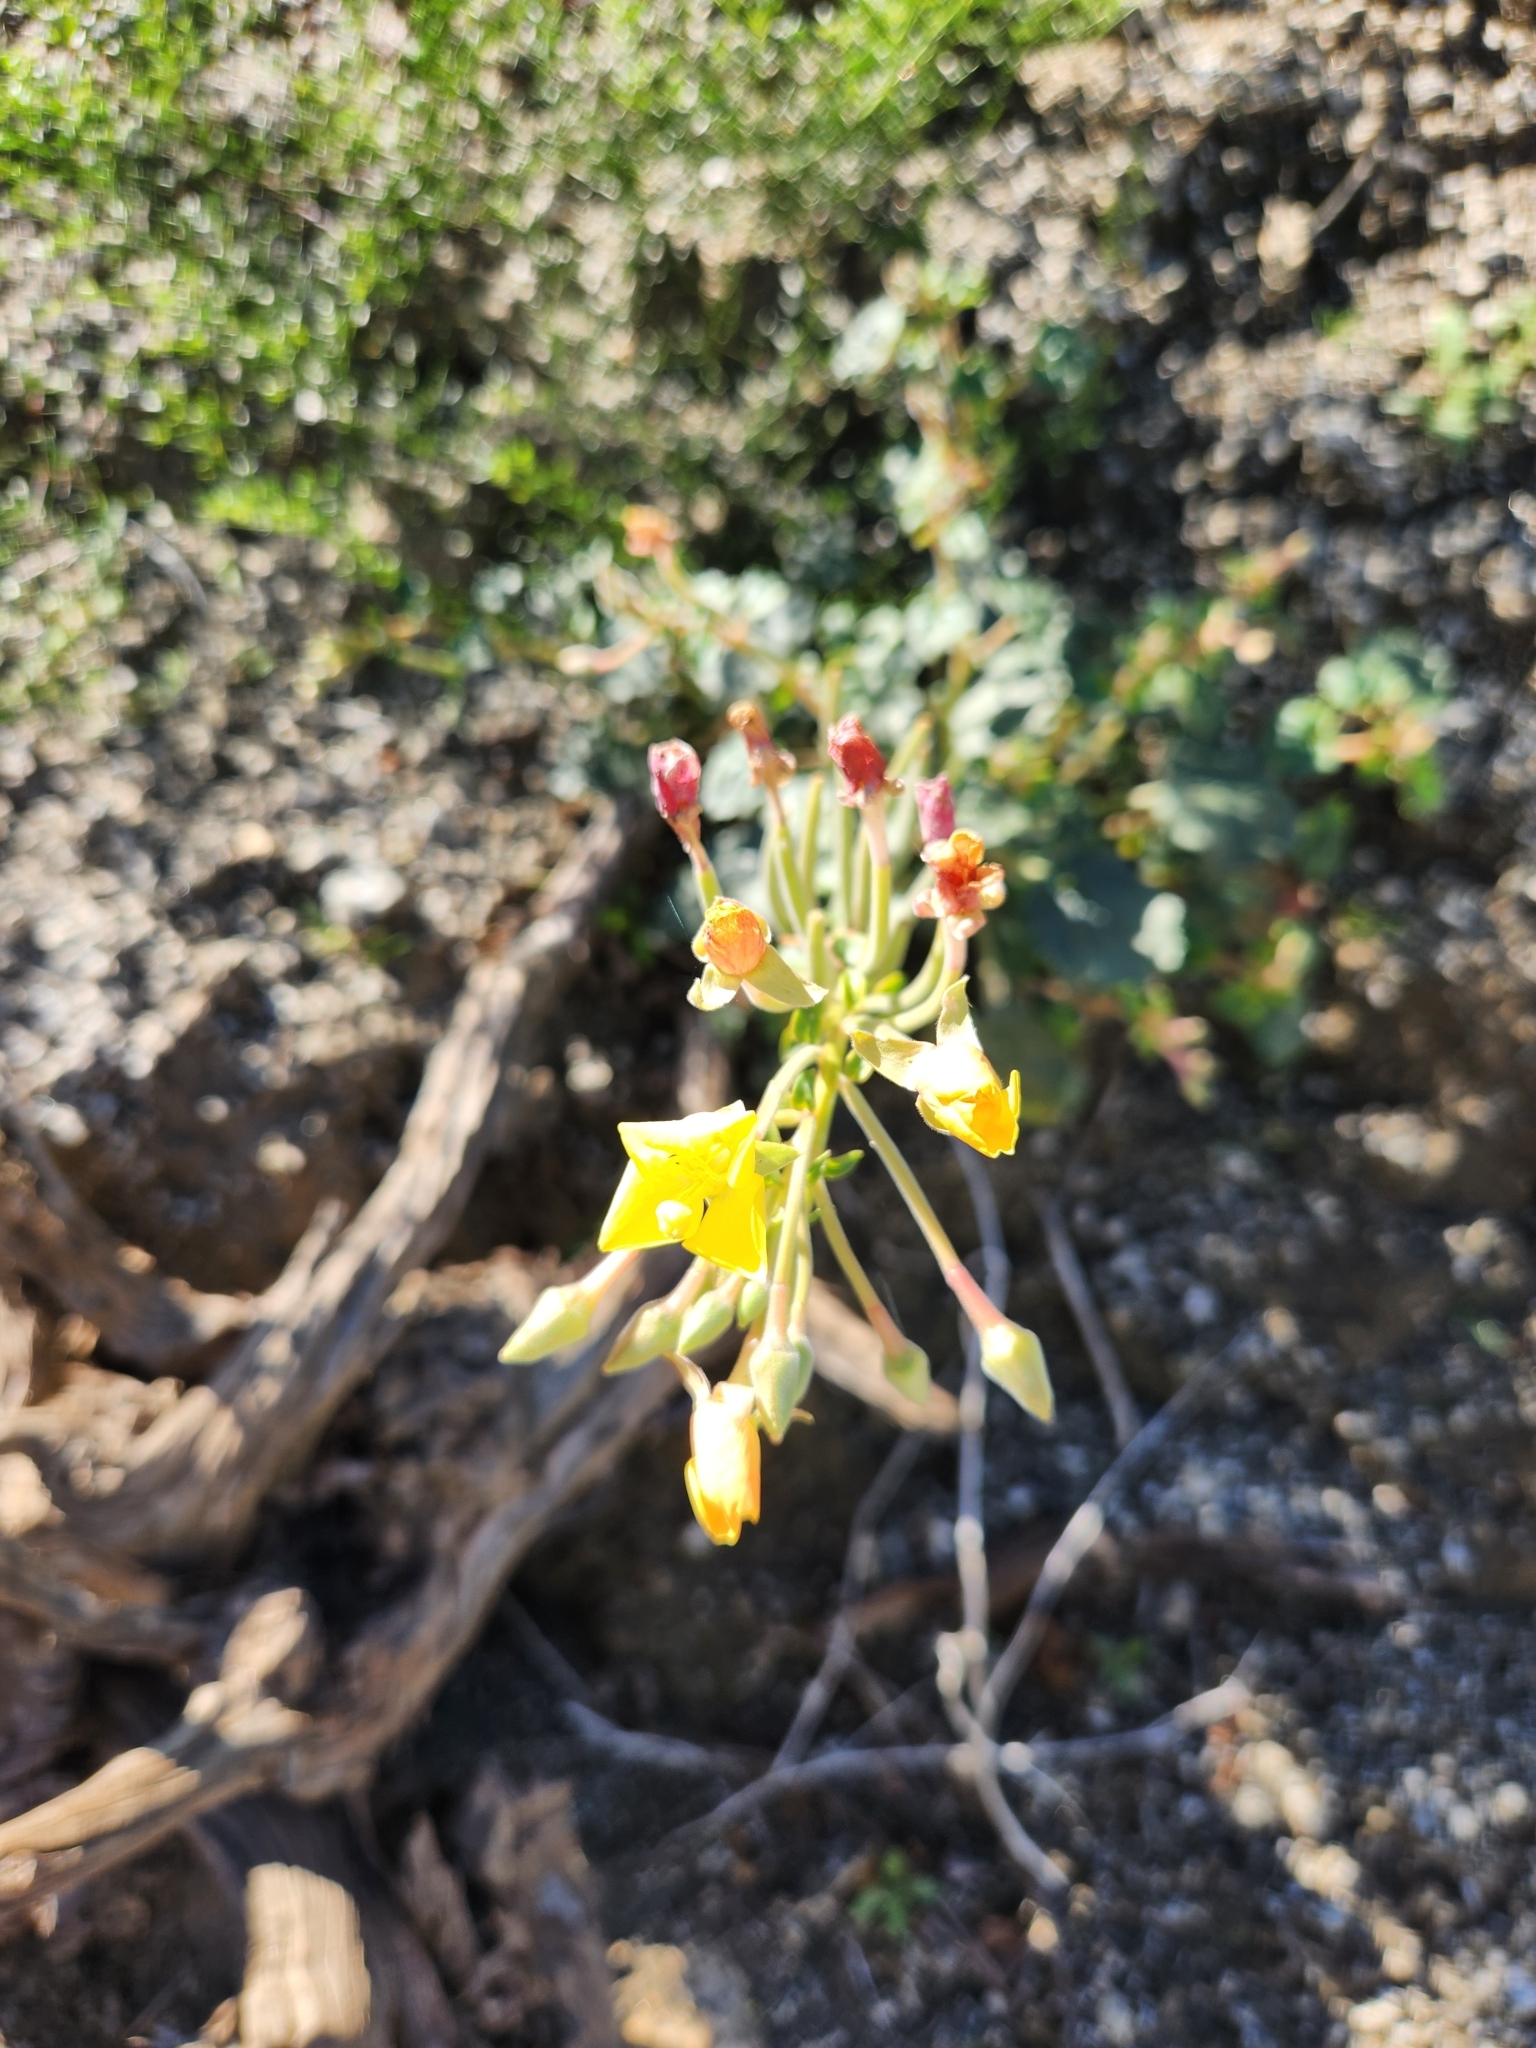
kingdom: Plantae
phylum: Tracheophyta
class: Magnoliopsida
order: Myrtales
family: Onagraceae
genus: Chylismia
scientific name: Chylismia cardiophylla
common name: Heartleaf suncup
